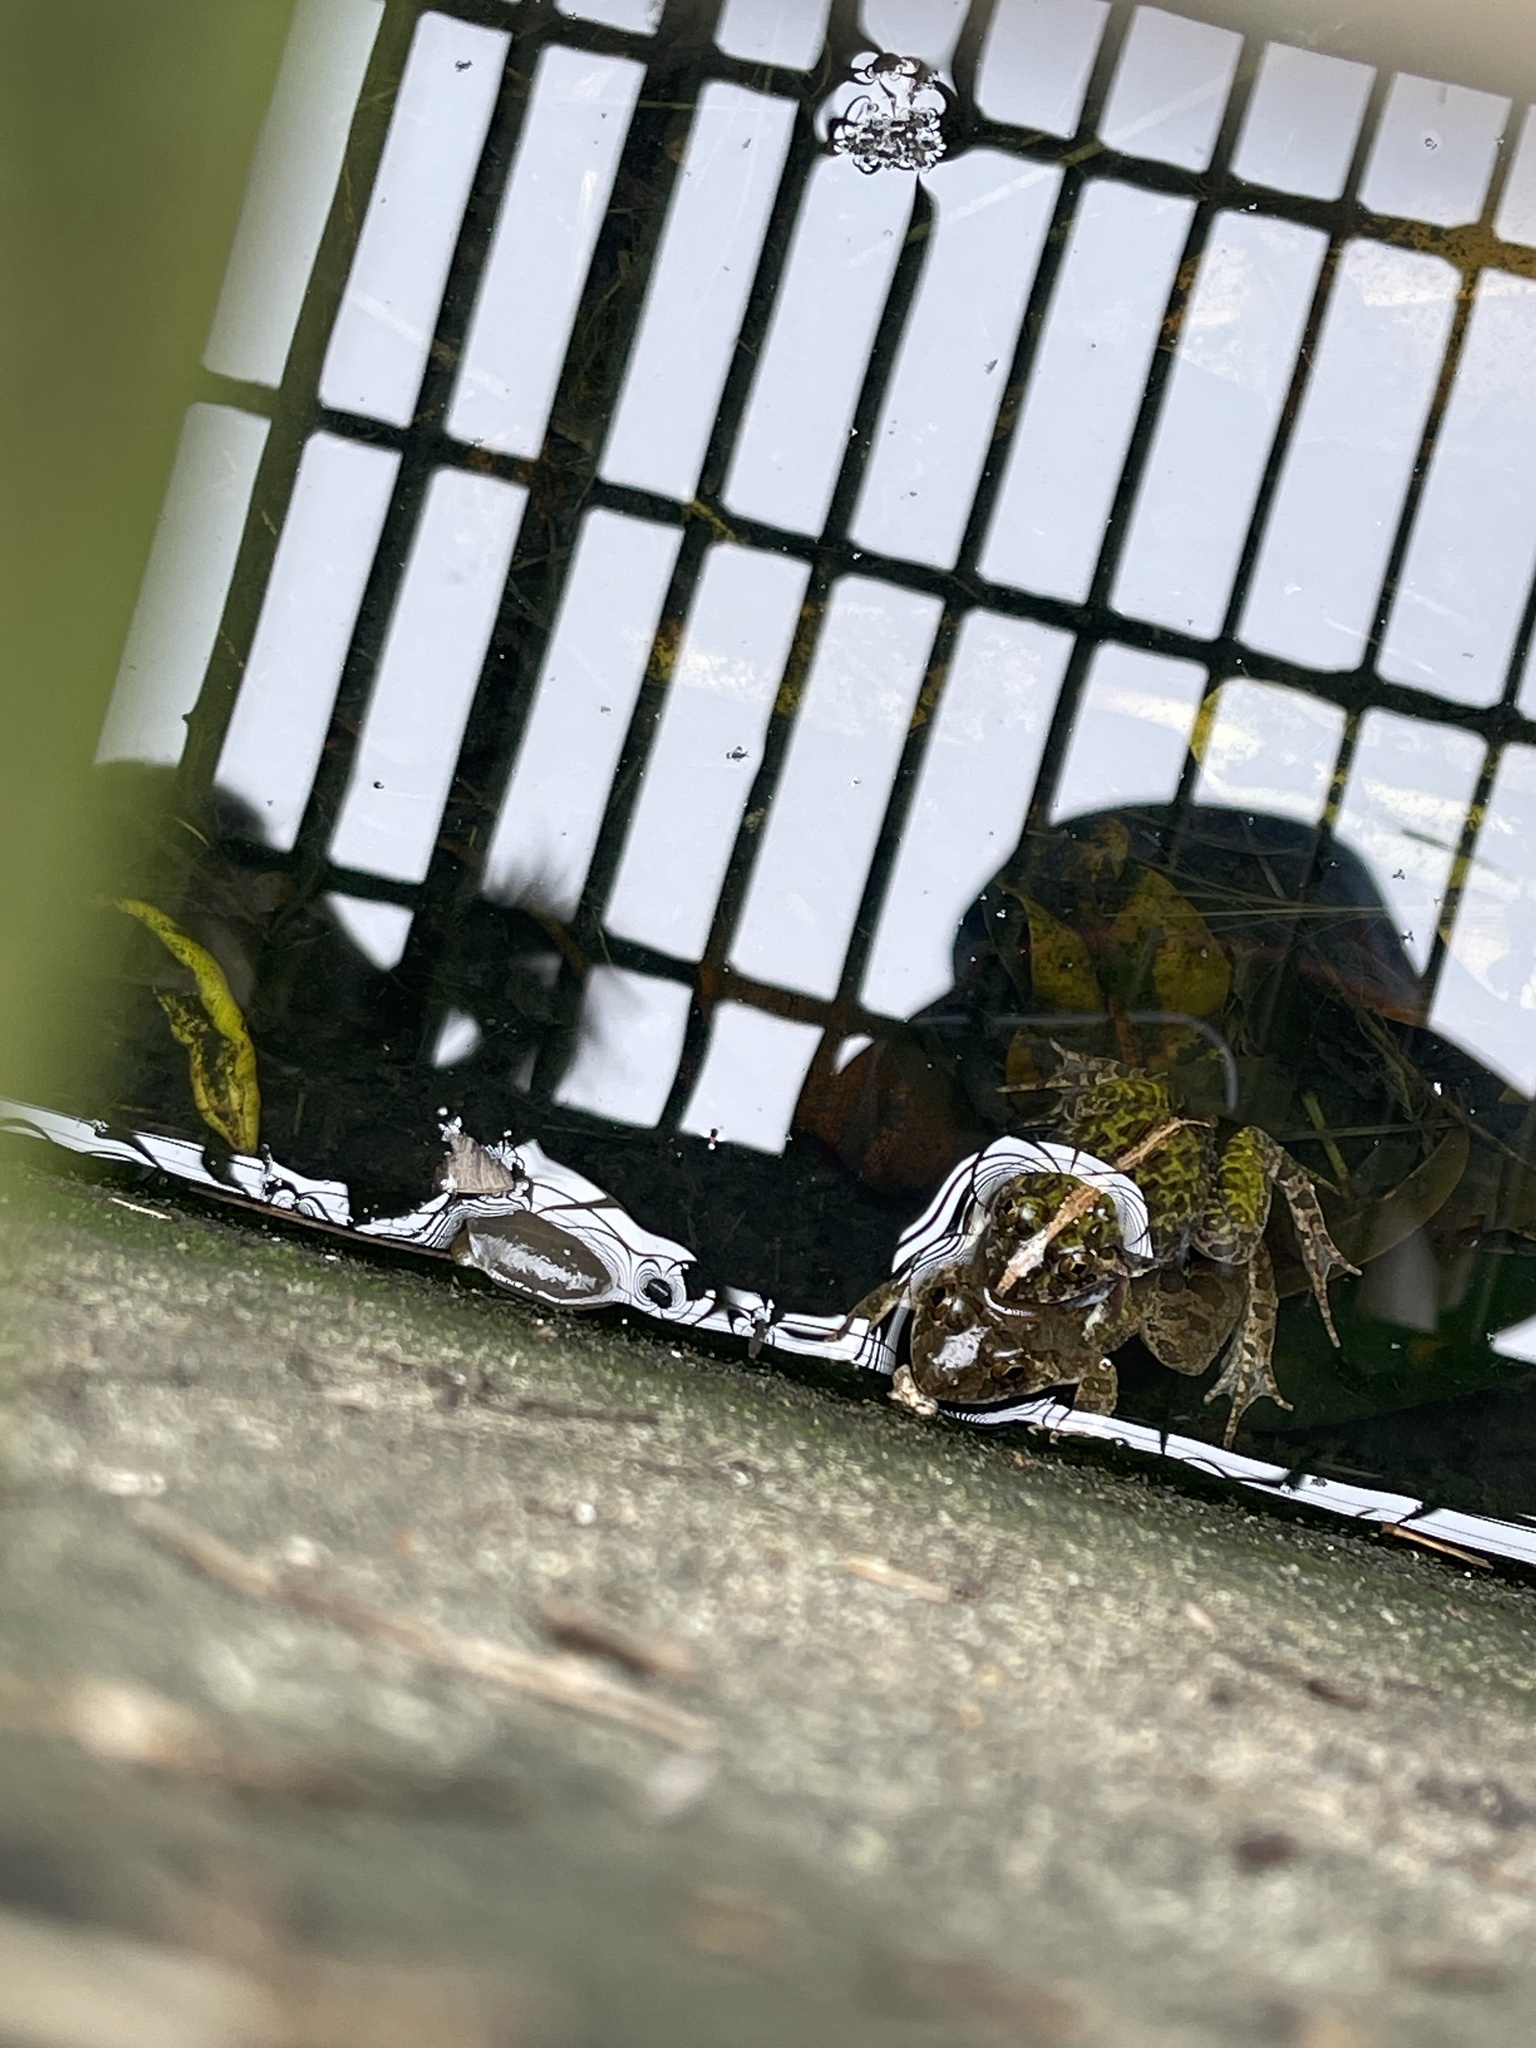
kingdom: Animalia
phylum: Chordata
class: Amphibia
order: Anura
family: Dicroglossidae
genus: Fejervarya
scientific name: Fejervarya limnocharis
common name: Asian grass frog/common pond frog/field frog/grass frog/indian rice frog
